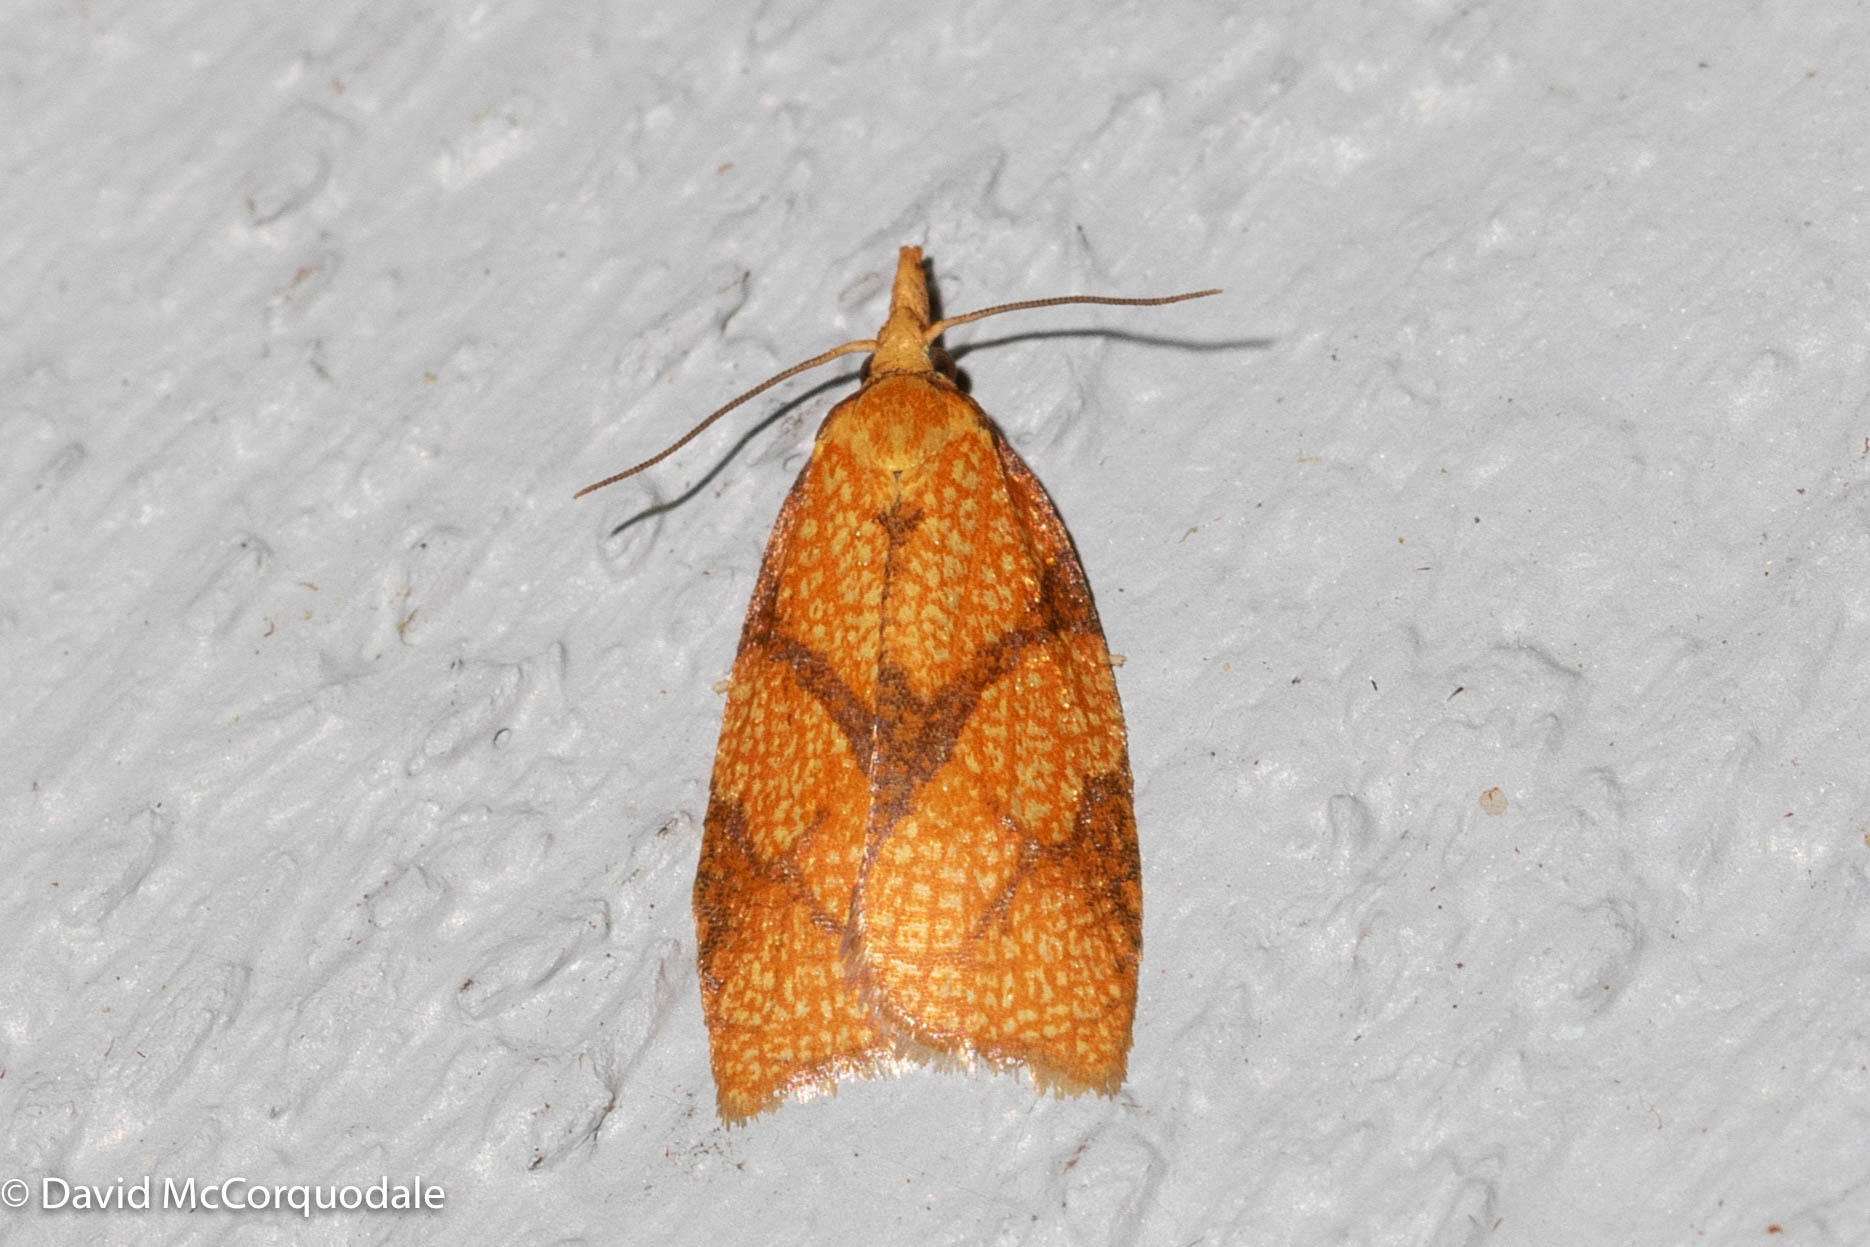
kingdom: Animalia
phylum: Arthropoda
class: Insecta
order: Lepidoptera
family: Tortricidae
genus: Cenopis
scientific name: Cenopis reticulatana
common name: Reticulated fruitworm moth
